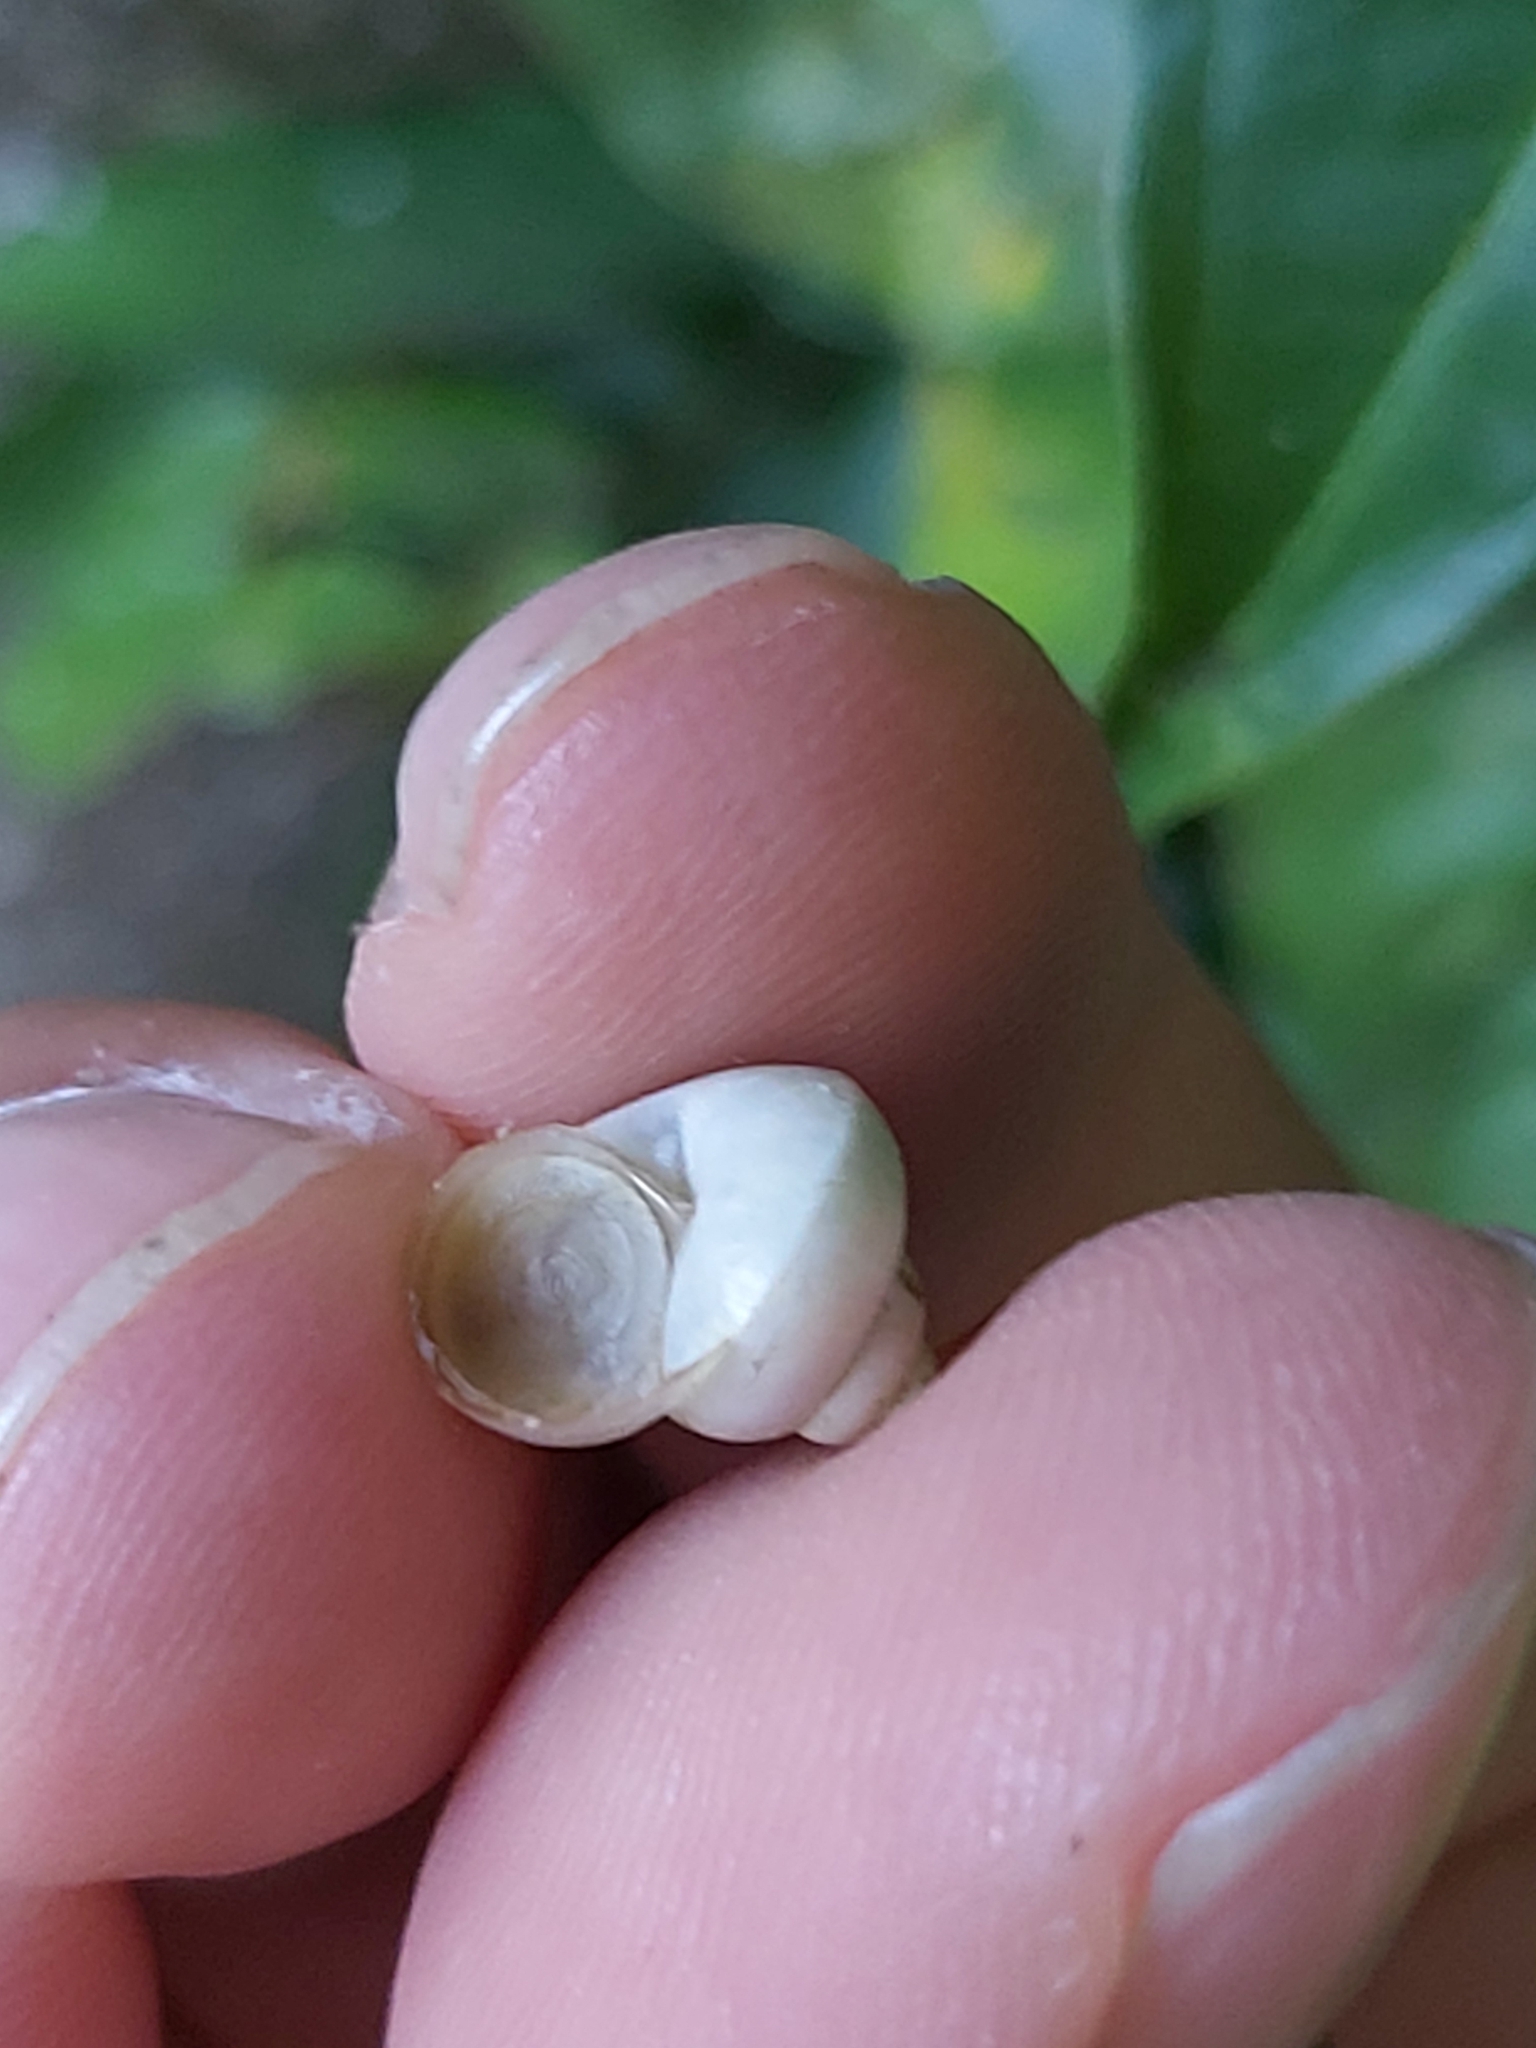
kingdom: Animalia
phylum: Mollusca
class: Gastropoda
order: Architaenioglossa
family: Cyclophoridae
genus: Leptopoma
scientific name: Leptopoma perlucidum
